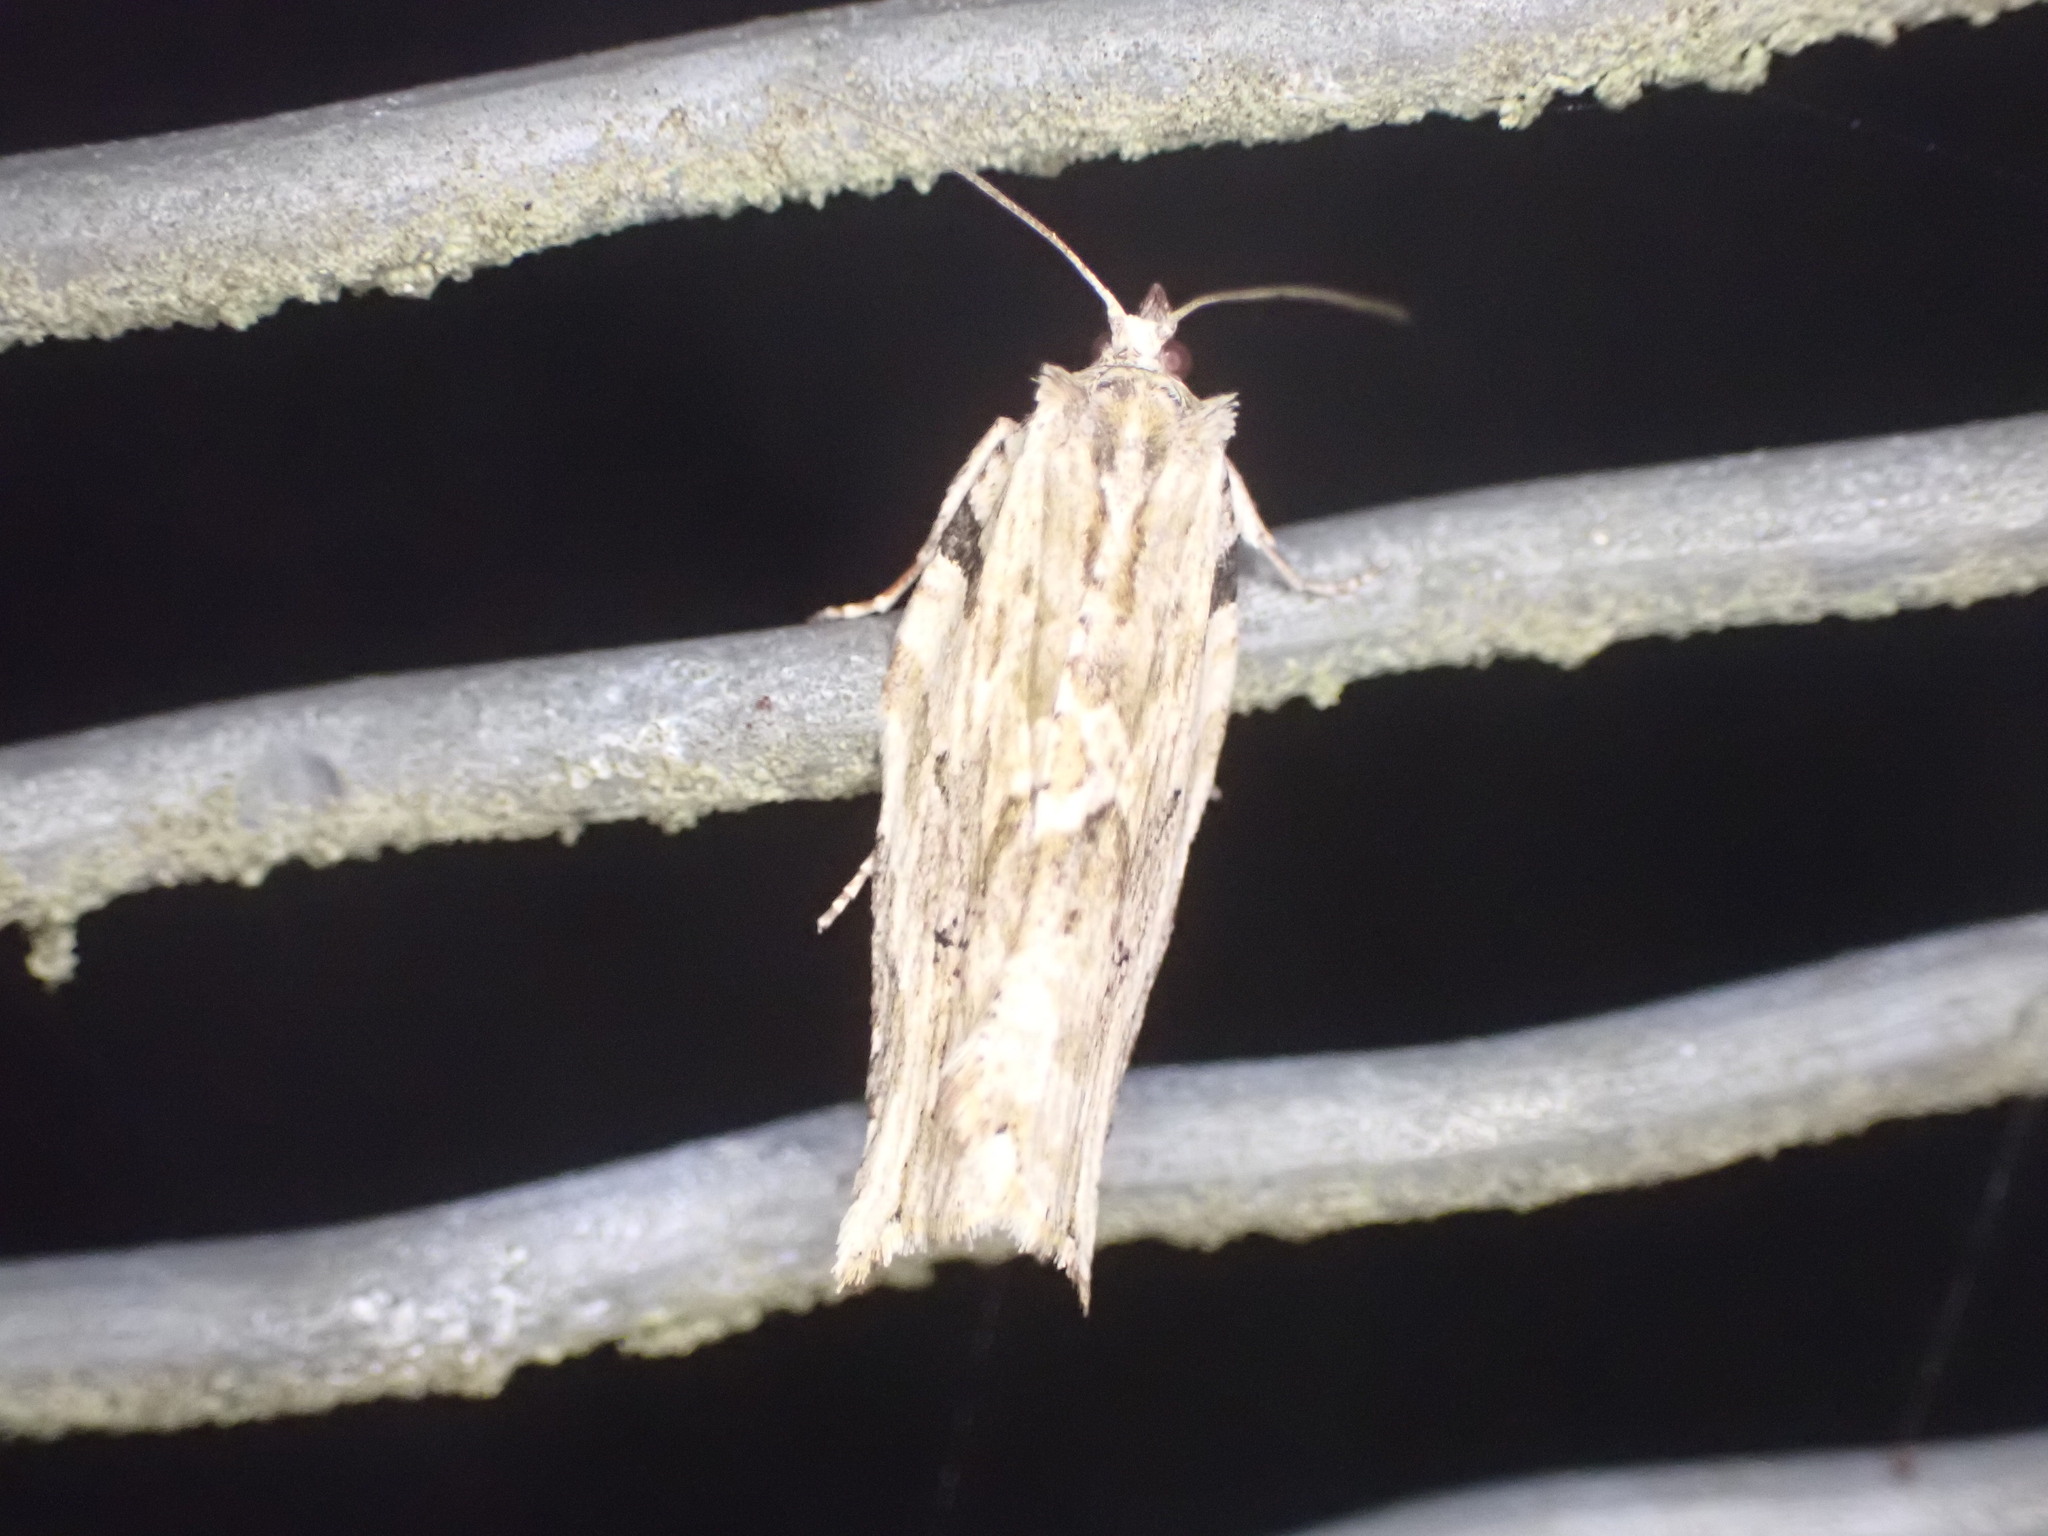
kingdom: Animalia
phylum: Arthropoda
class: Insecta
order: Lepidoptera
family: Tortricidae
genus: Epalxiphora
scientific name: Epalxiphora axenana
